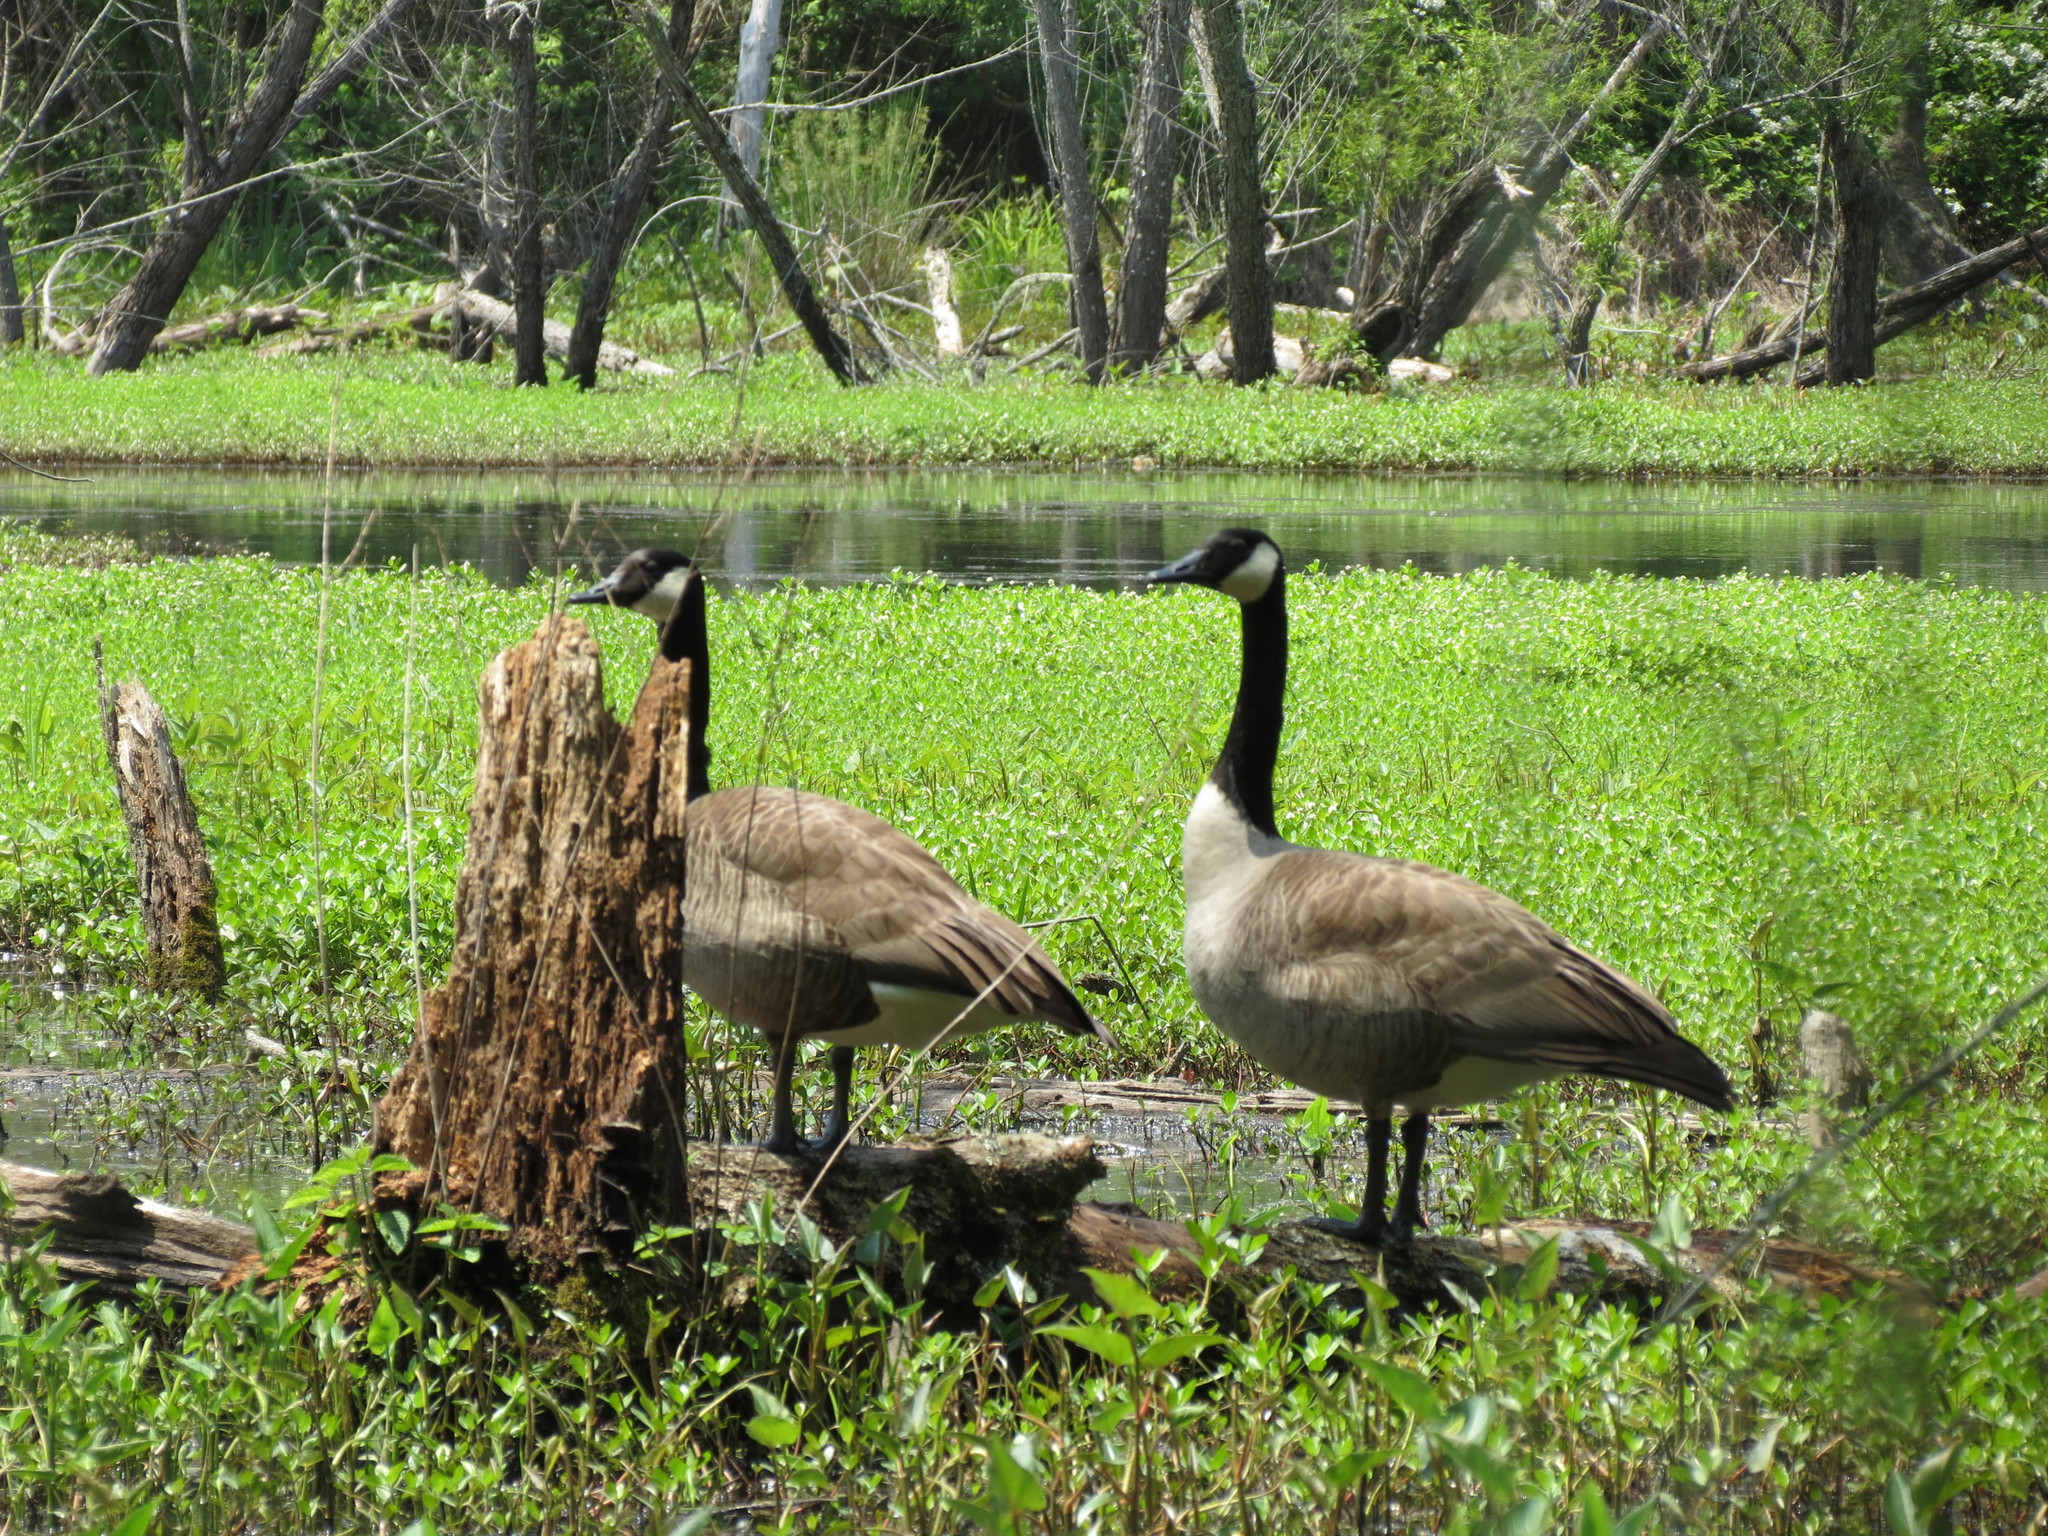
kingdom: Animalia
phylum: Chordata
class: Aves
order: Anseriformes
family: Anatidae
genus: Branta
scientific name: Branta canadensis
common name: Canada goose
